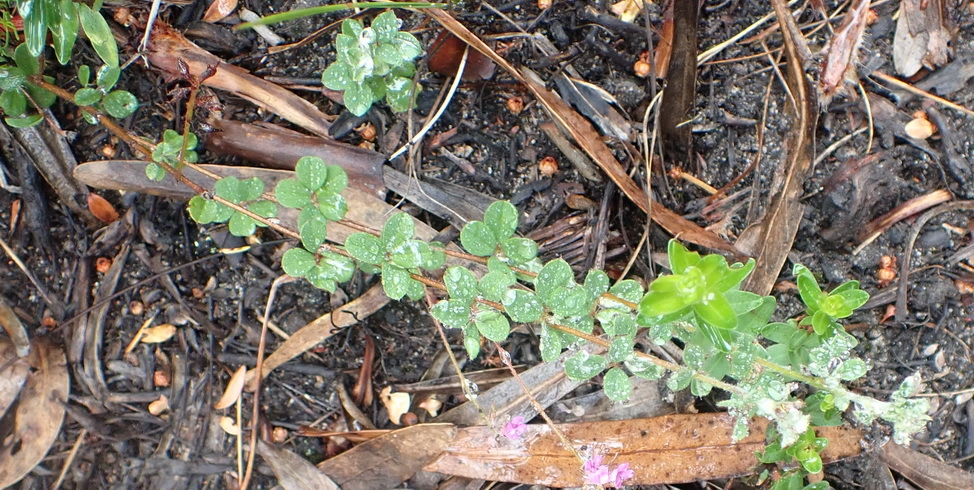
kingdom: Plantae
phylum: Tracheophyta
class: Magnoliopsida
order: Fabales
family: Fabaceae
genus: Indigofera
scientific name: Indigofera alopecuroides
